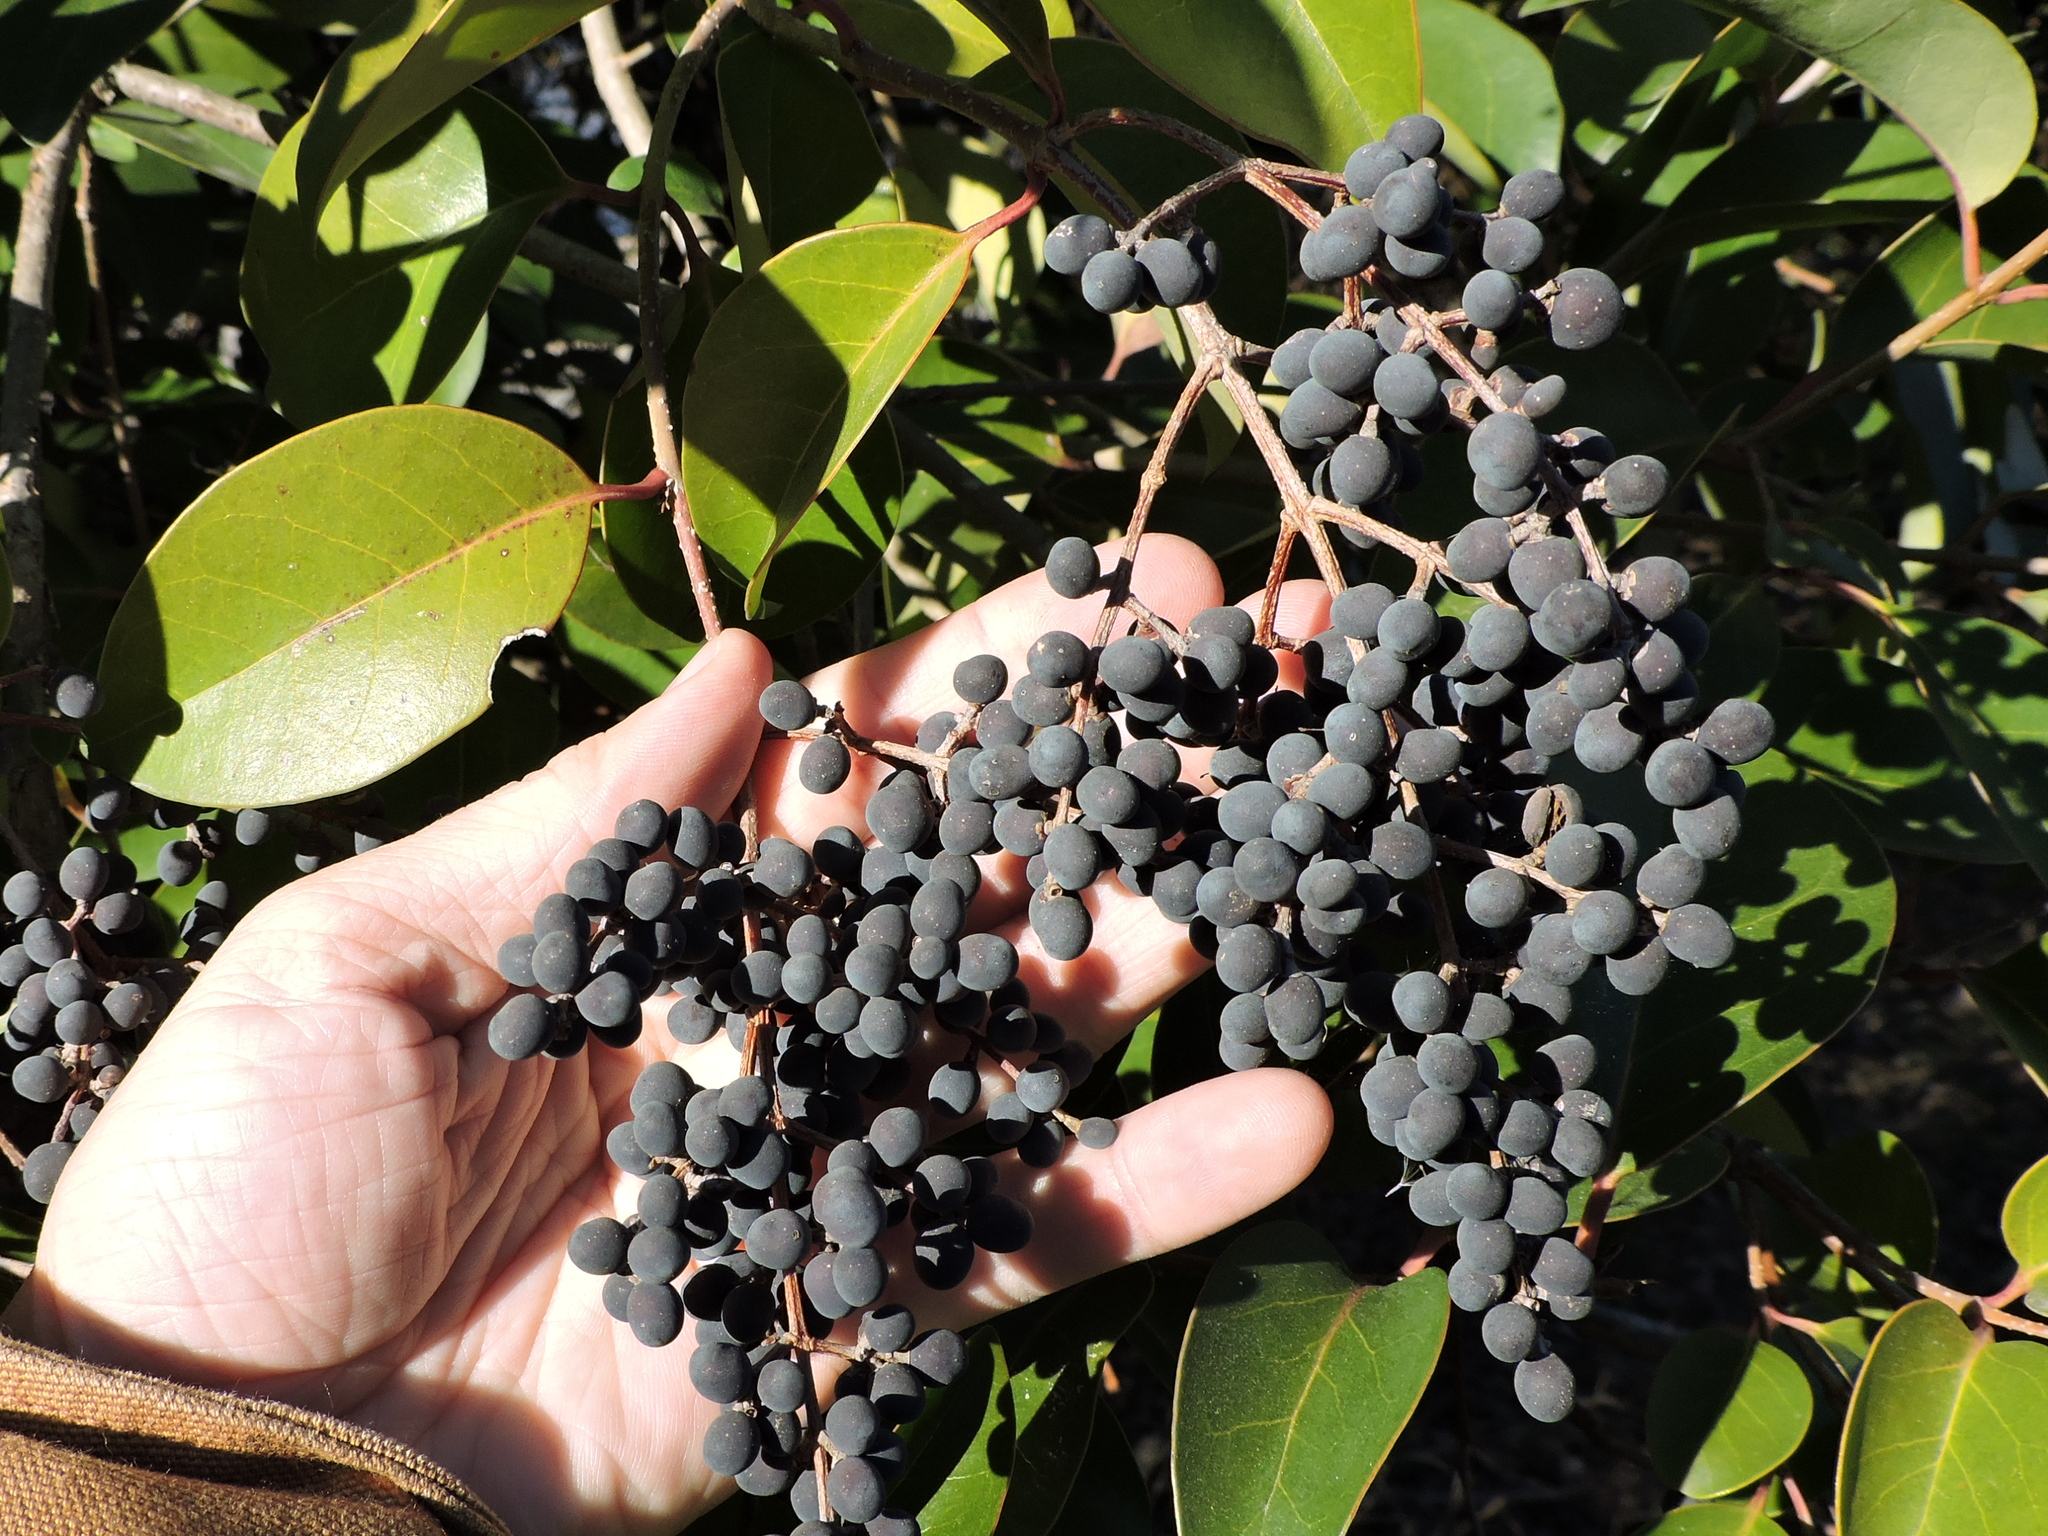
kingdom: Plantae
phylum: Tracheophyta
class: Magnoliopsida
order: Lamiales
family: Oleaceae
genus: Ligustrum
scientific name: Ligustrum lucidum
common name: Glossy privet
